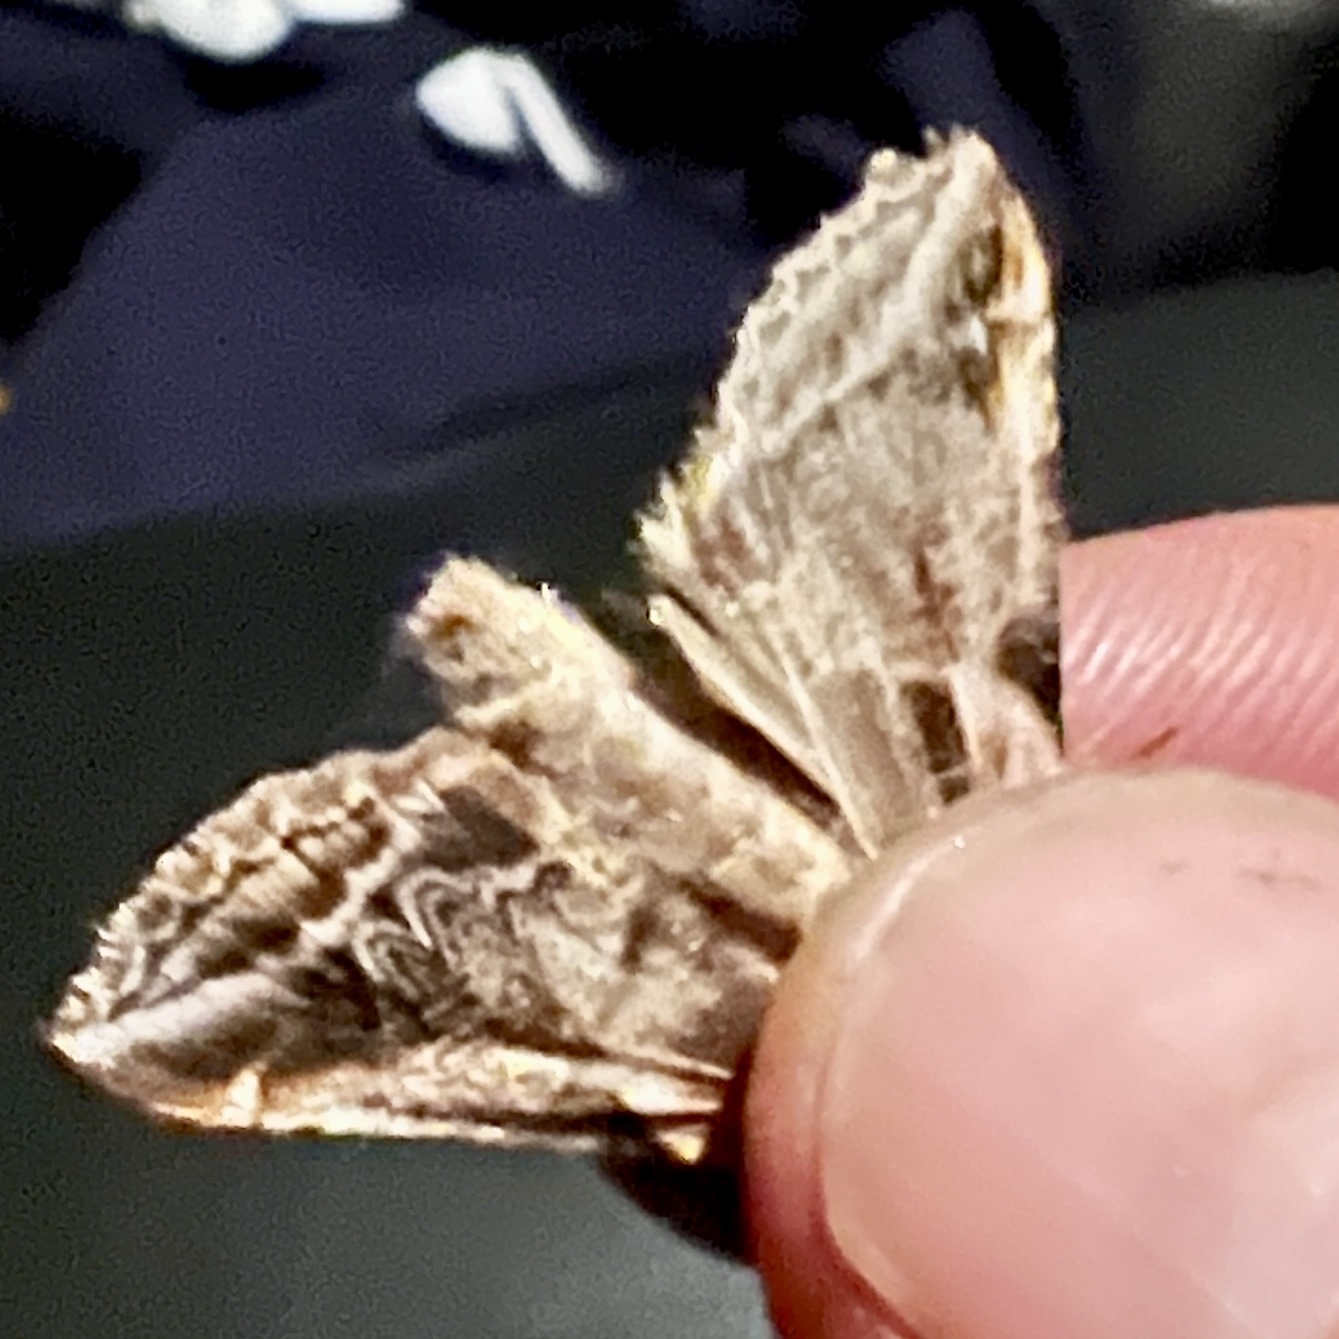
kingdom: Animalia
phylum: Arthropoda
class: Insecta
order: Lepidoptera
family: Drepanidae
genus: Habrosyne
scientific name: Habrosyne scripta
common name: Lettered habrosyne moth
